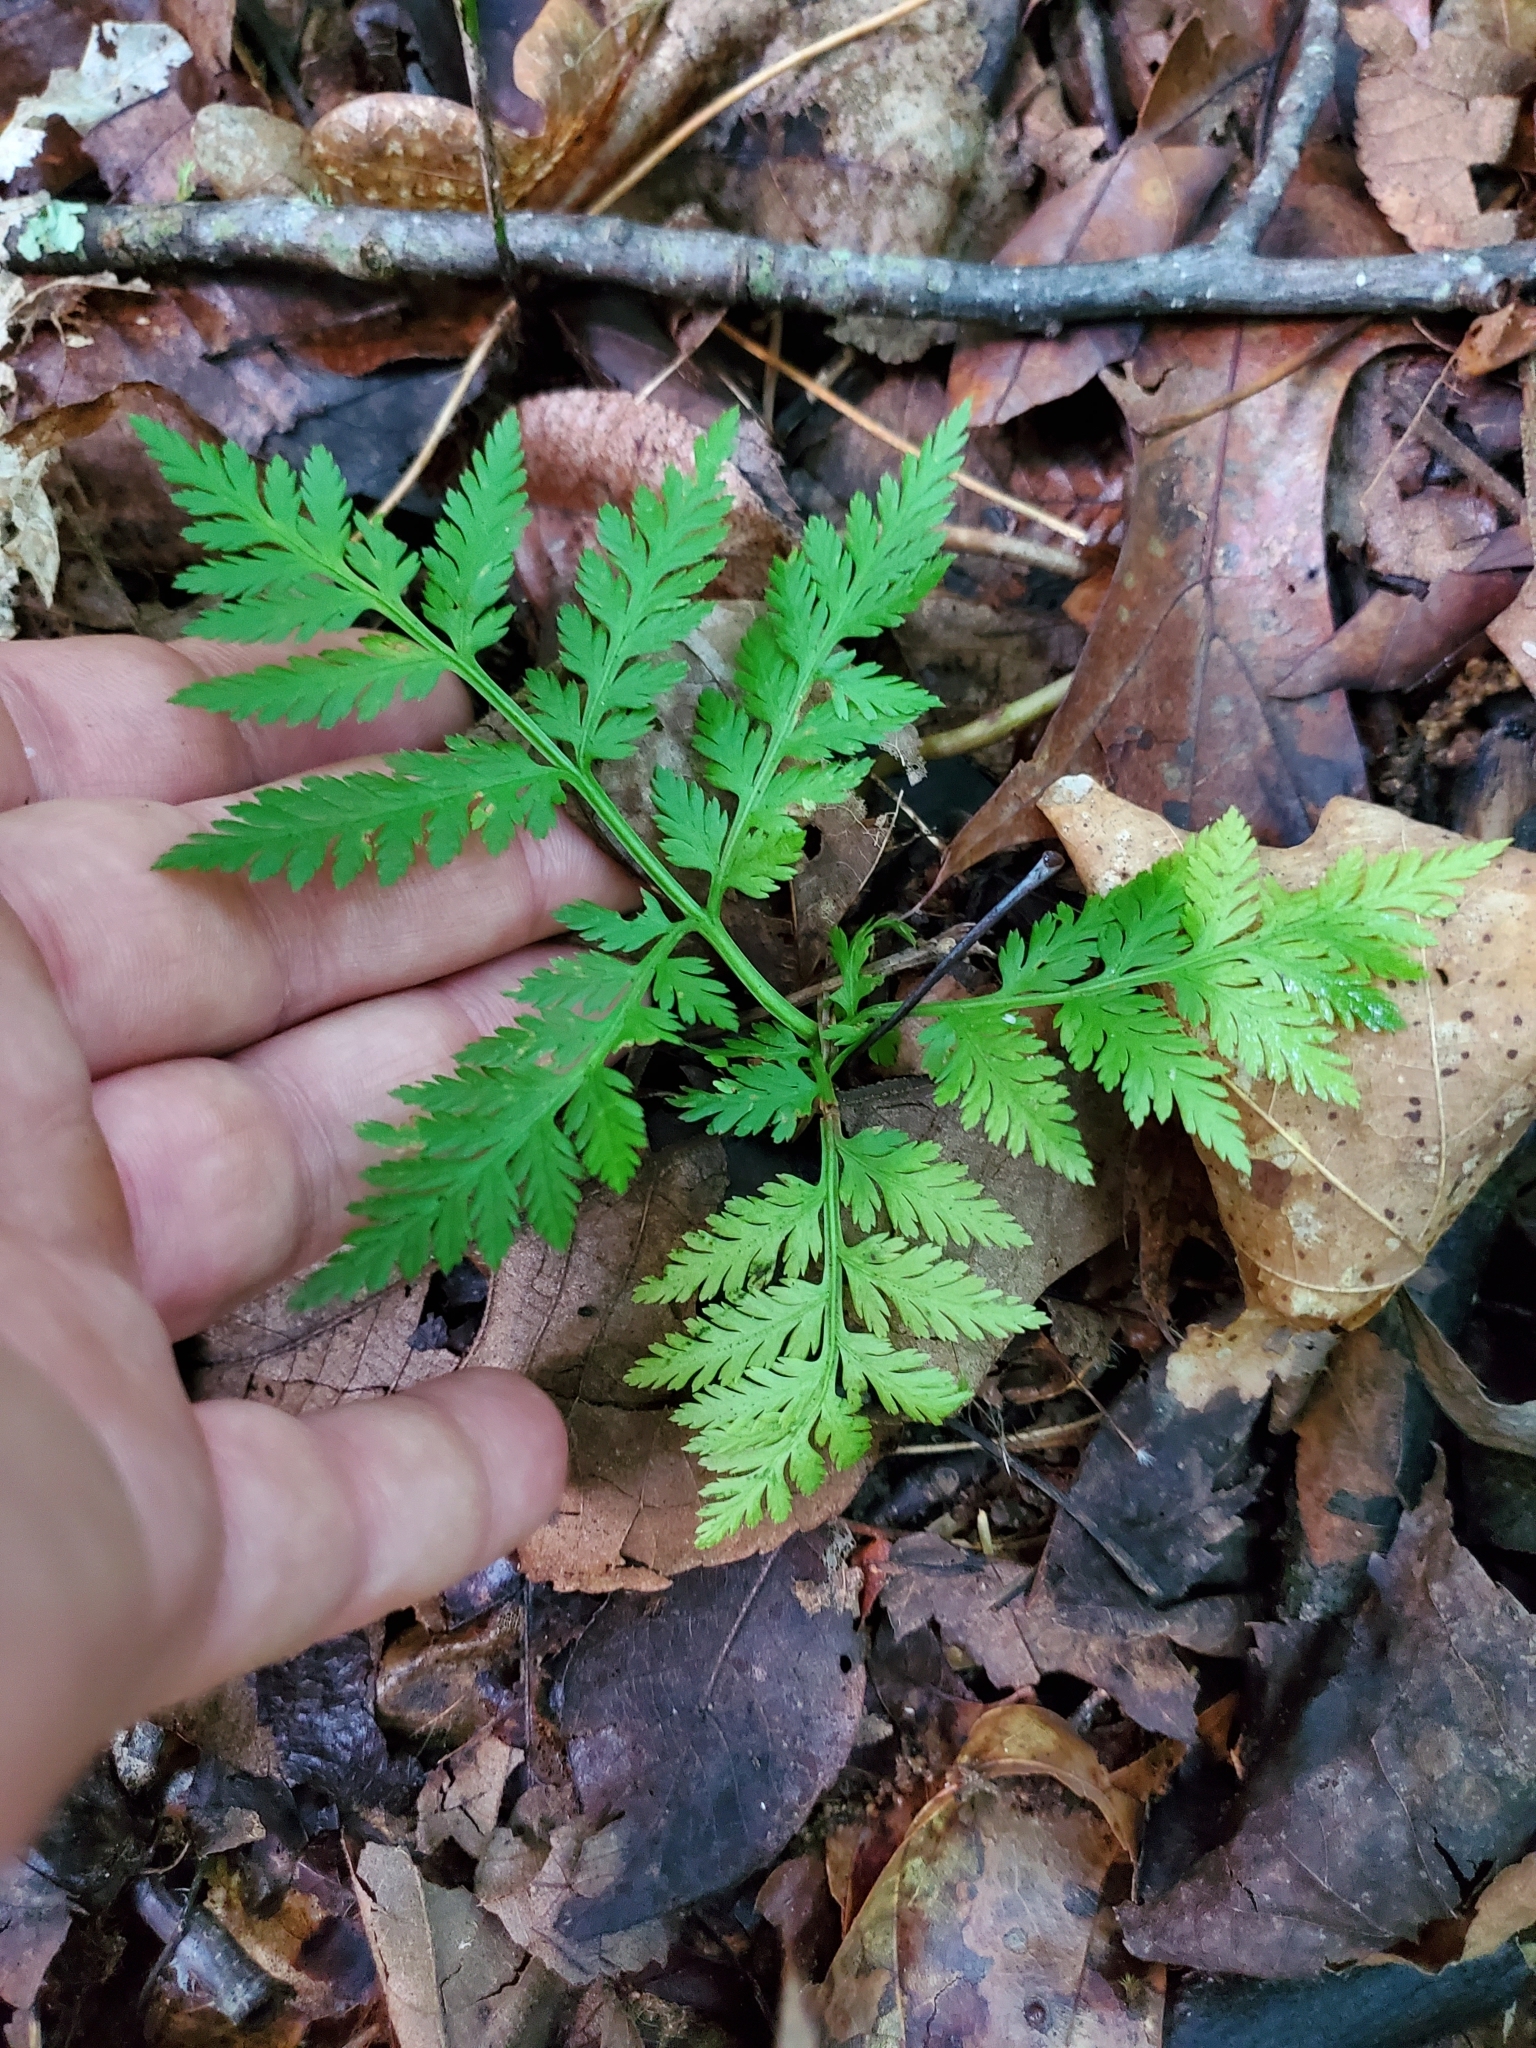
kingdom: Plantae
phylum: Tracheophyta
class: Polypodiopsida
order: Ophioglossales
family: Ophioglossaceae
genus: Botrypus
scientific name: Botrypus virginianus
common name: Common grapefern
